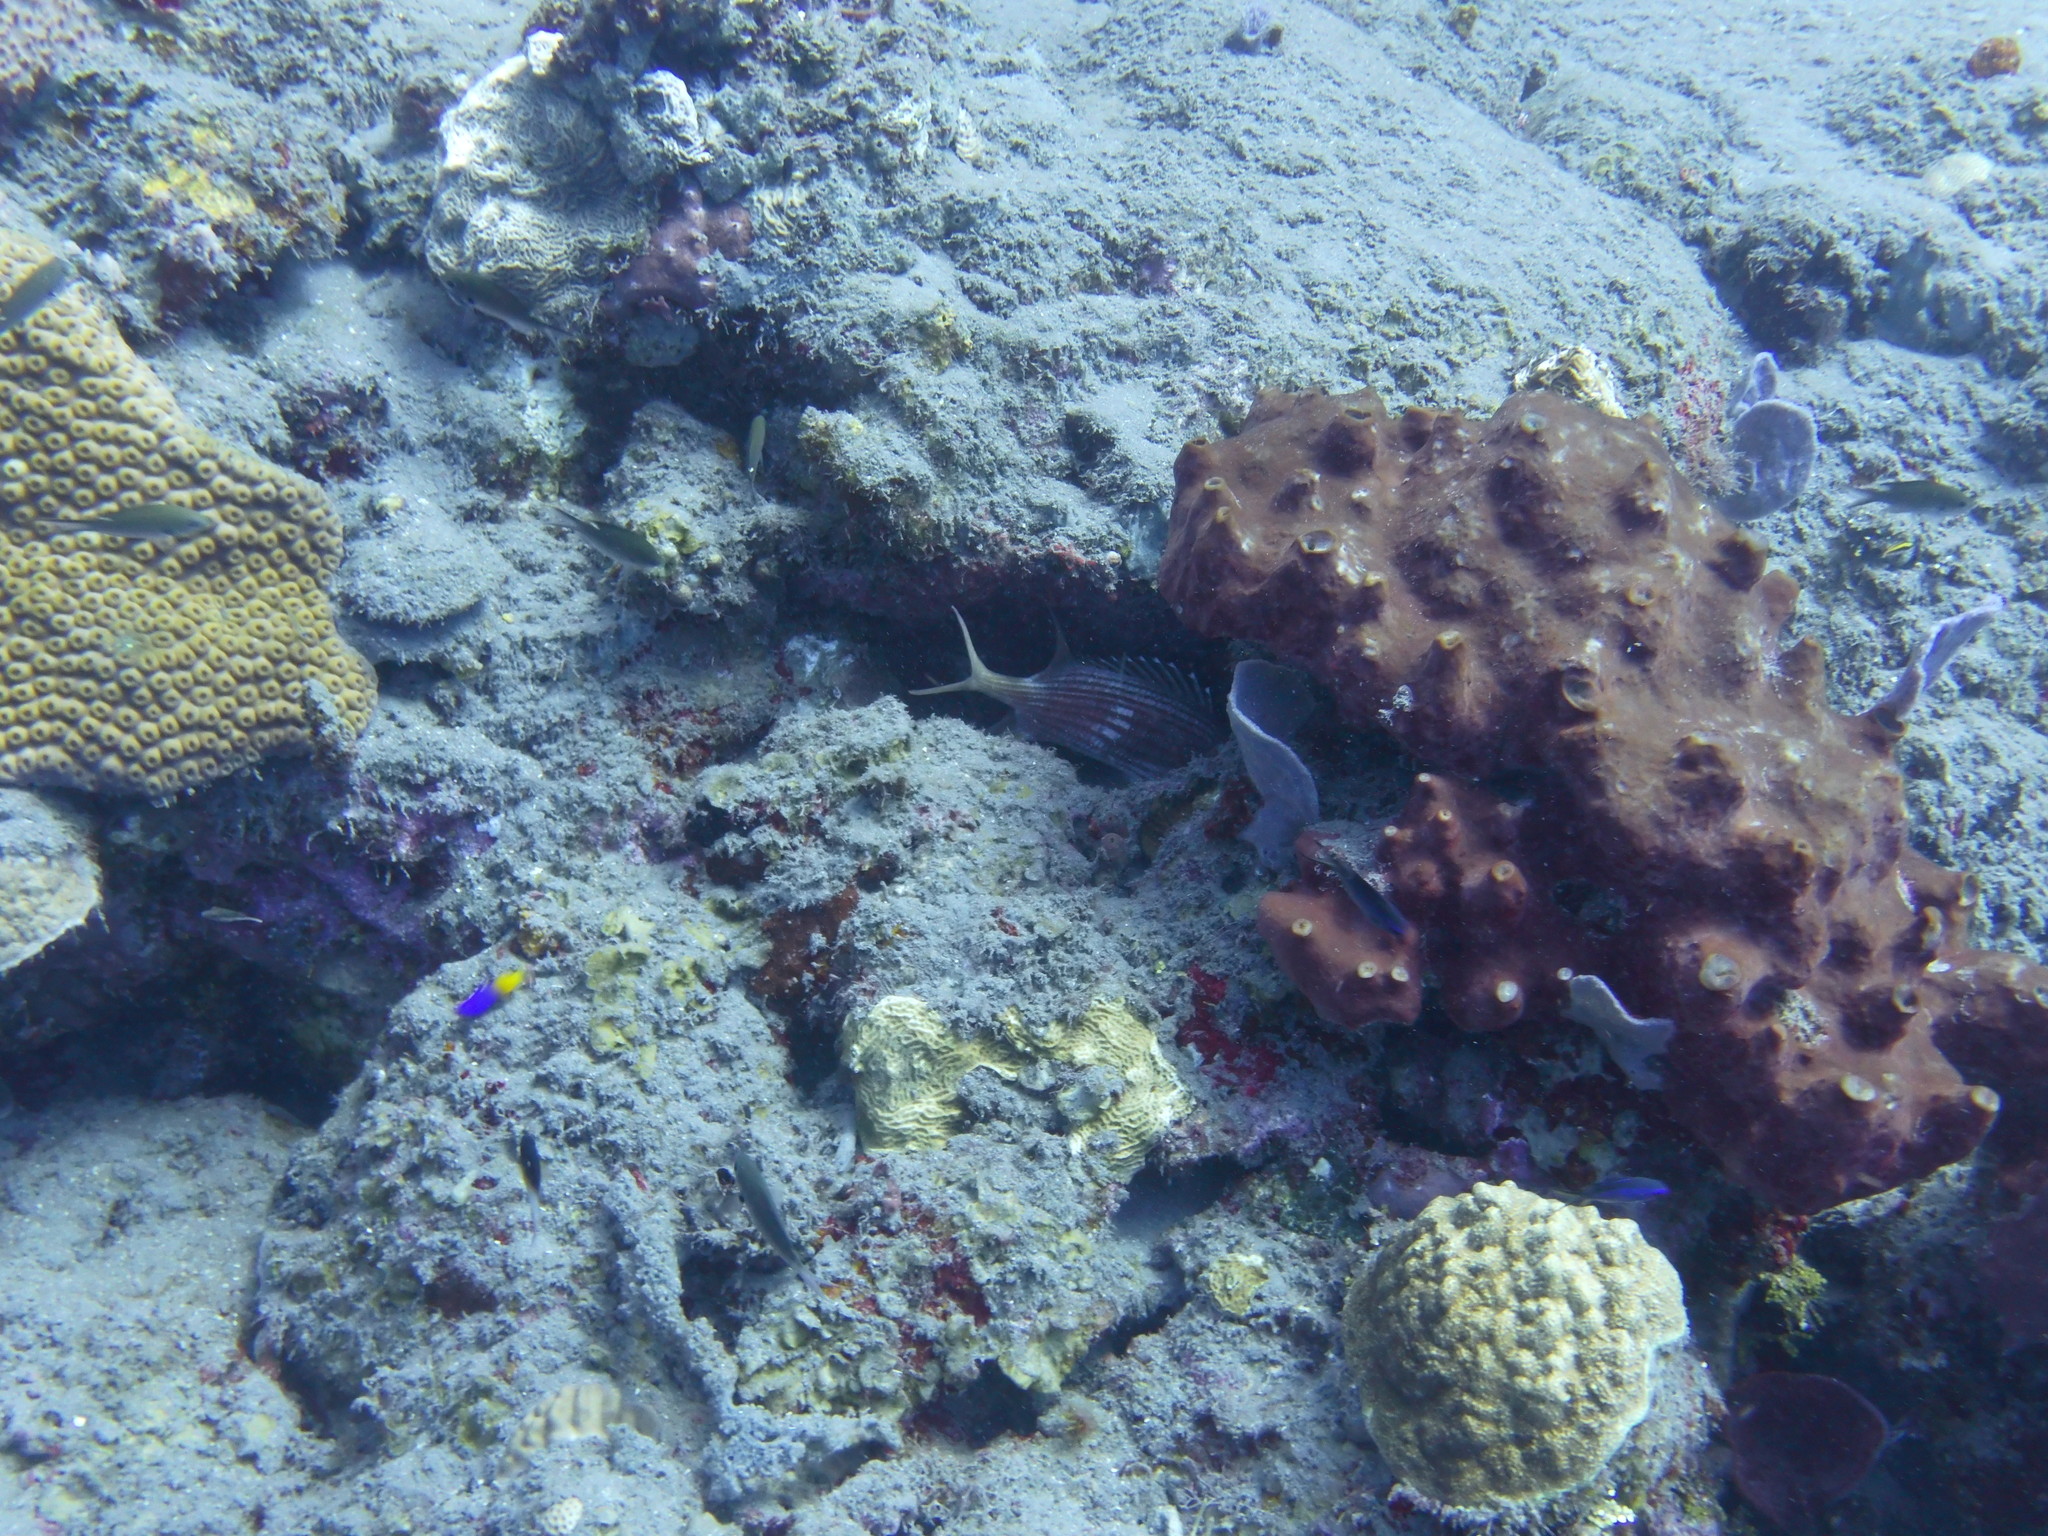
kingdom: Animalia
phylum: Chordata
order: Beryciformes
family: Holocentridae
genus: Holocentrus
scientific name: Holocentrus rufus
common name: Longspine squirrelfish
